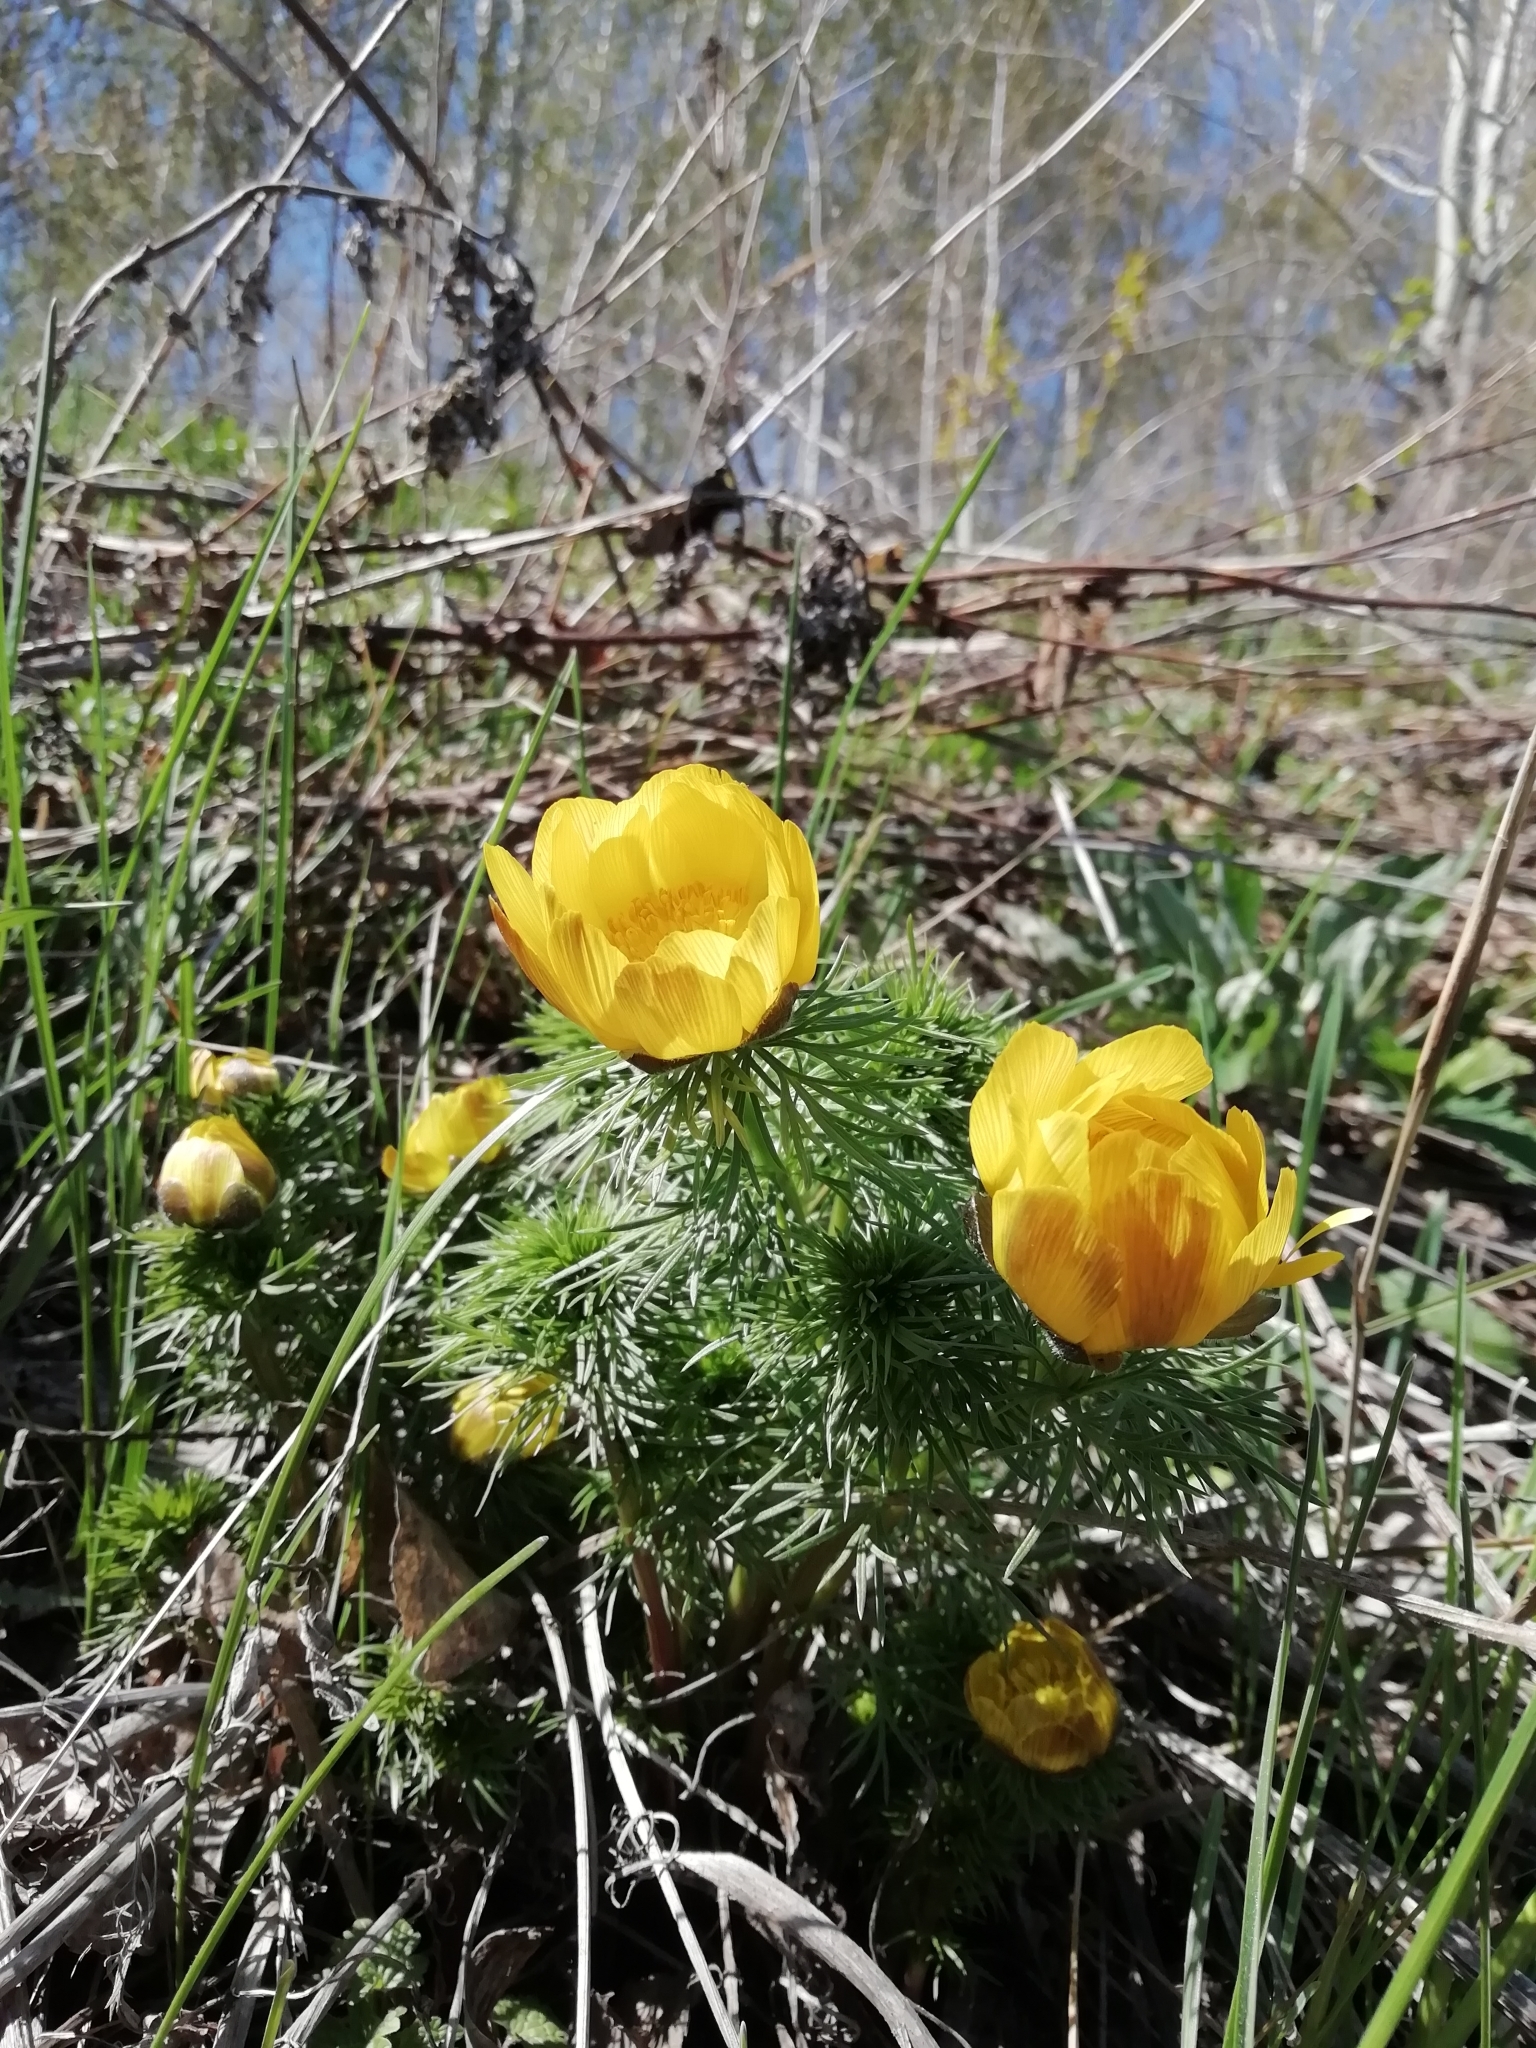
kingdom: Plantae
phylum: Tracheophyta
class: Magnoliopsida
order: Ranunculales
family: Ranunculaceae
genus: Adonis
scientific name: Adonis vernalis
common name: Yellow pheasants-eye
